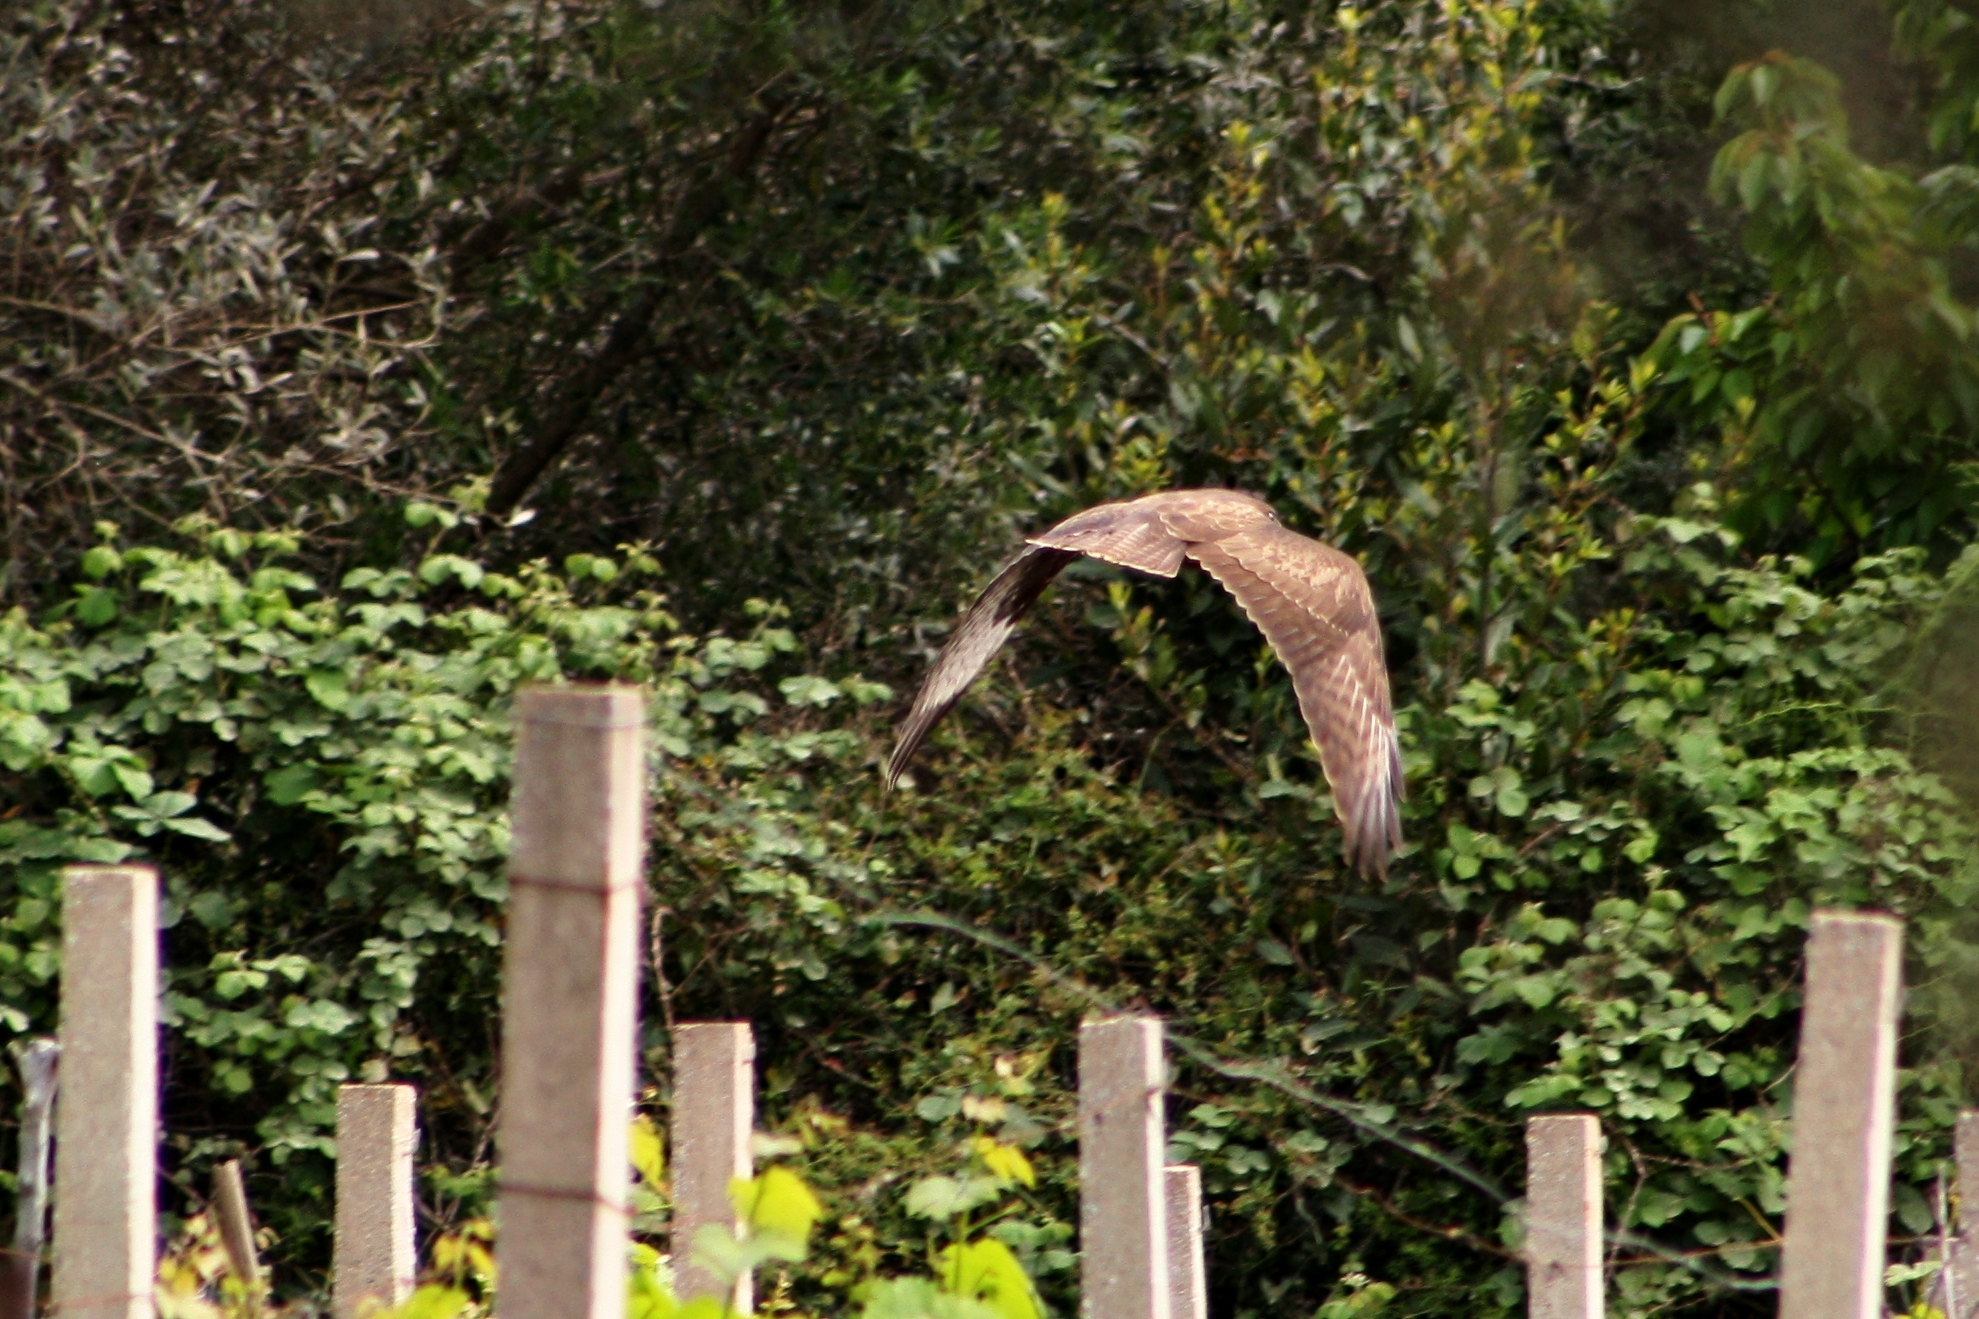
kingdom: Animalia
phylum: Chordata
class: Aves
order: Accipitriformes
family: Accipitridae
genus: Buteo
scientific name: Buteo buteo
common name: Common buzzard
